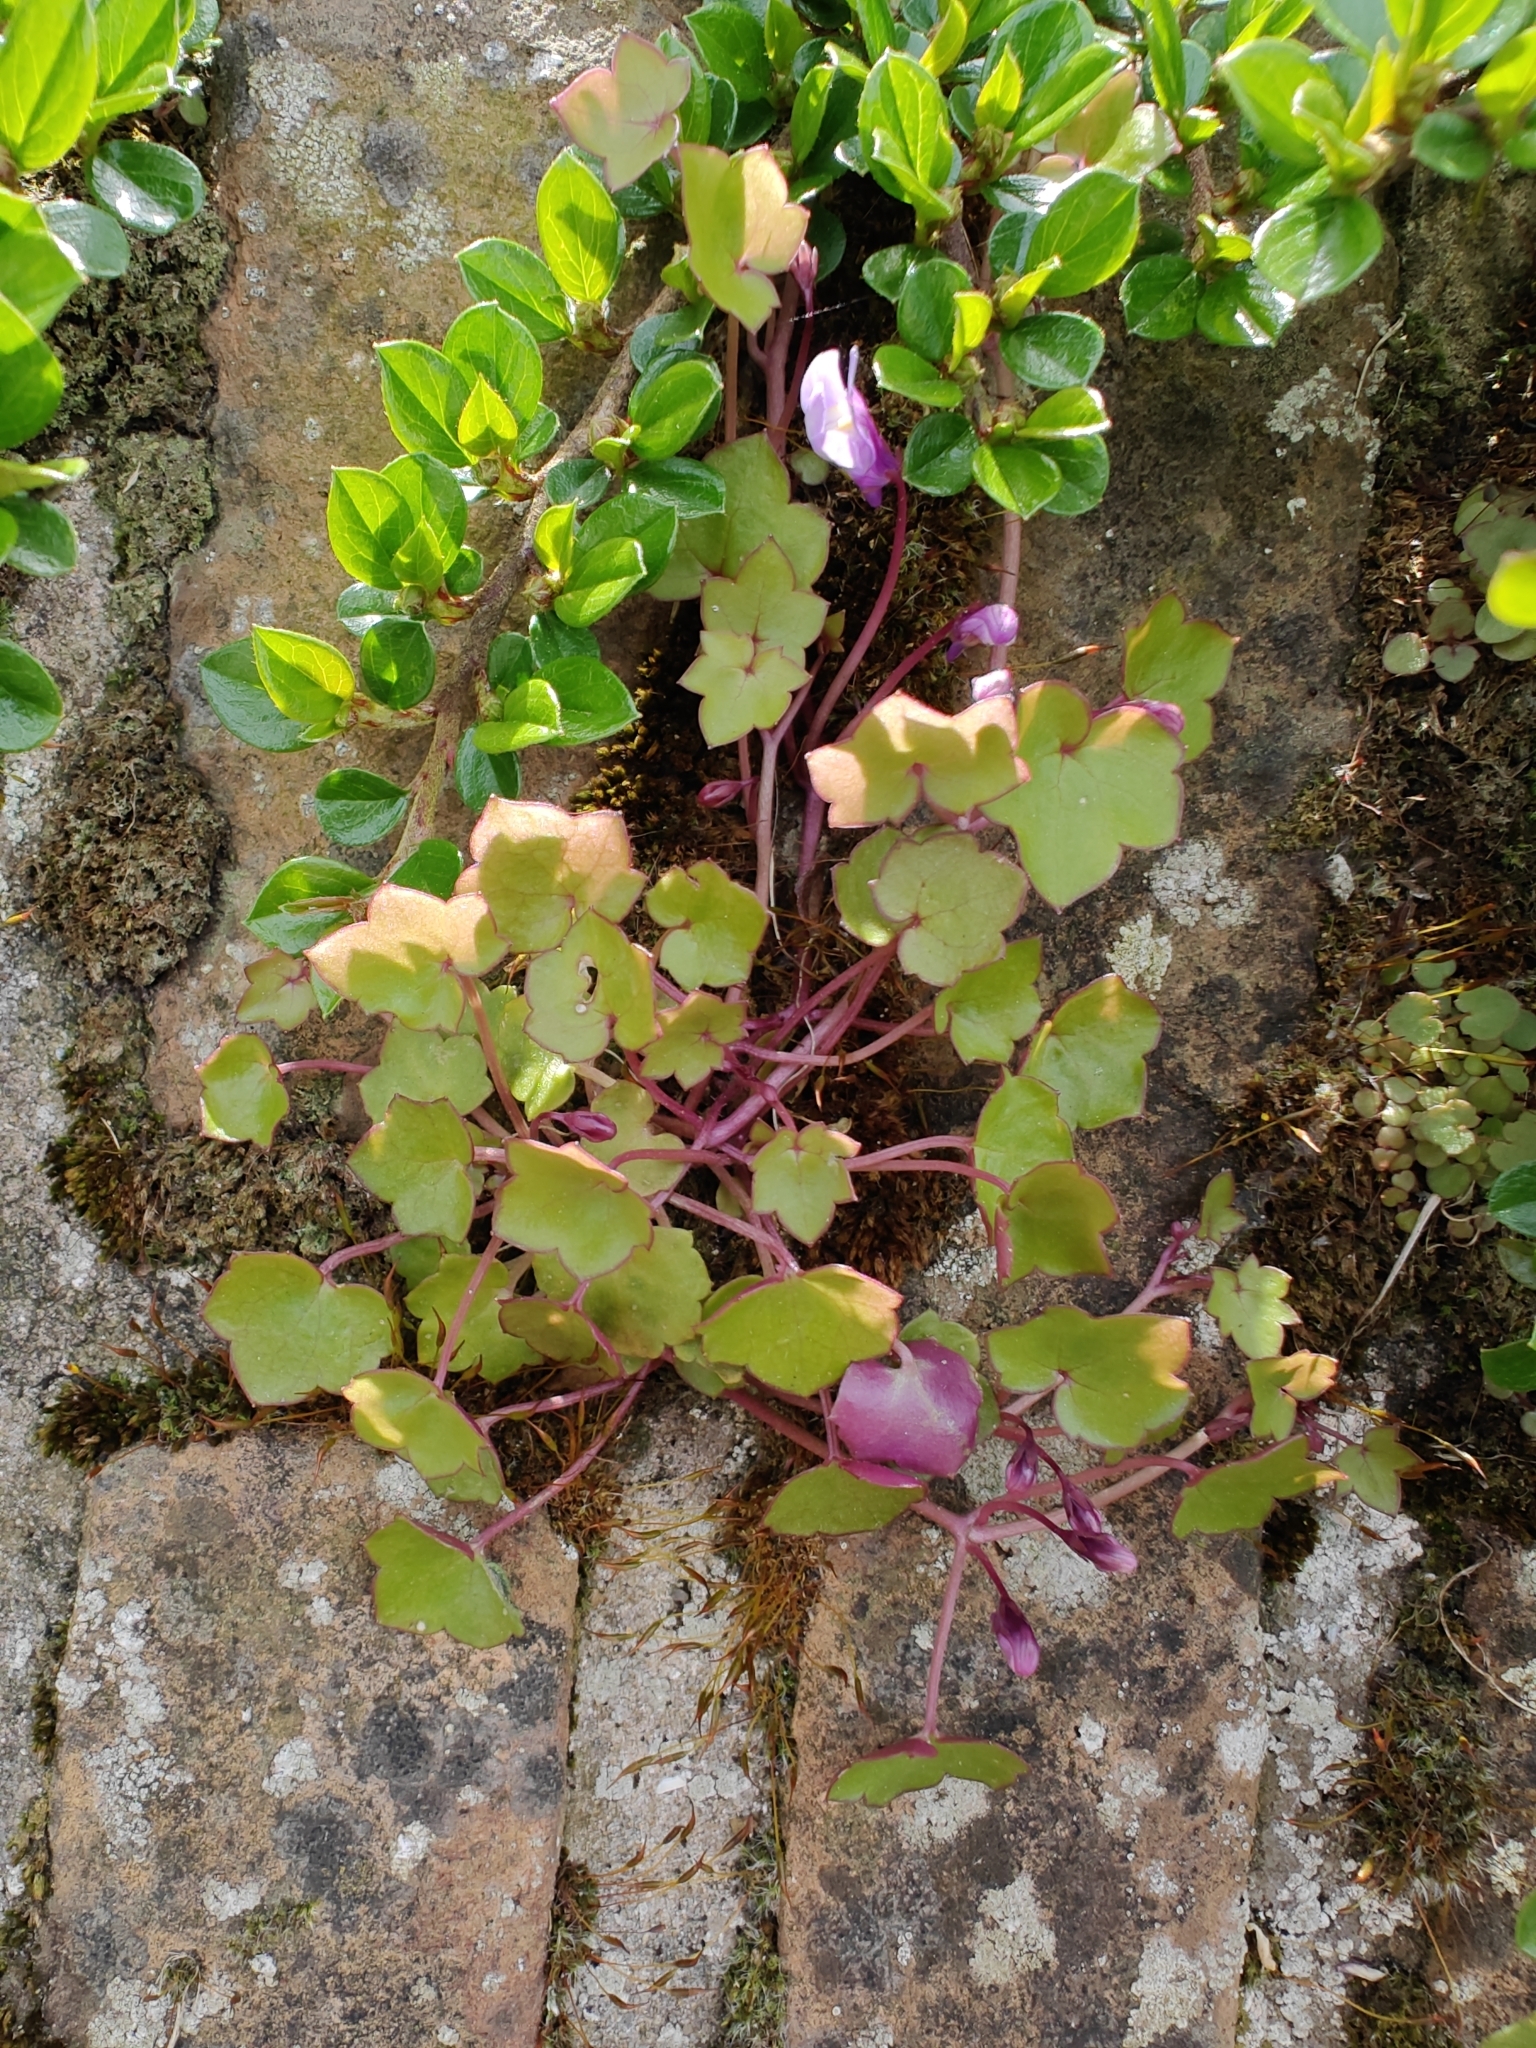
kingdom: Plantae
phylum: Tracheophyta
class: Magnoliopsida
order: Lamiales
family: Plantaginaceae
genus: Cymbalaria
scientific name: Cymbalaria muralis
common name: Ivy-leaved toadflax
